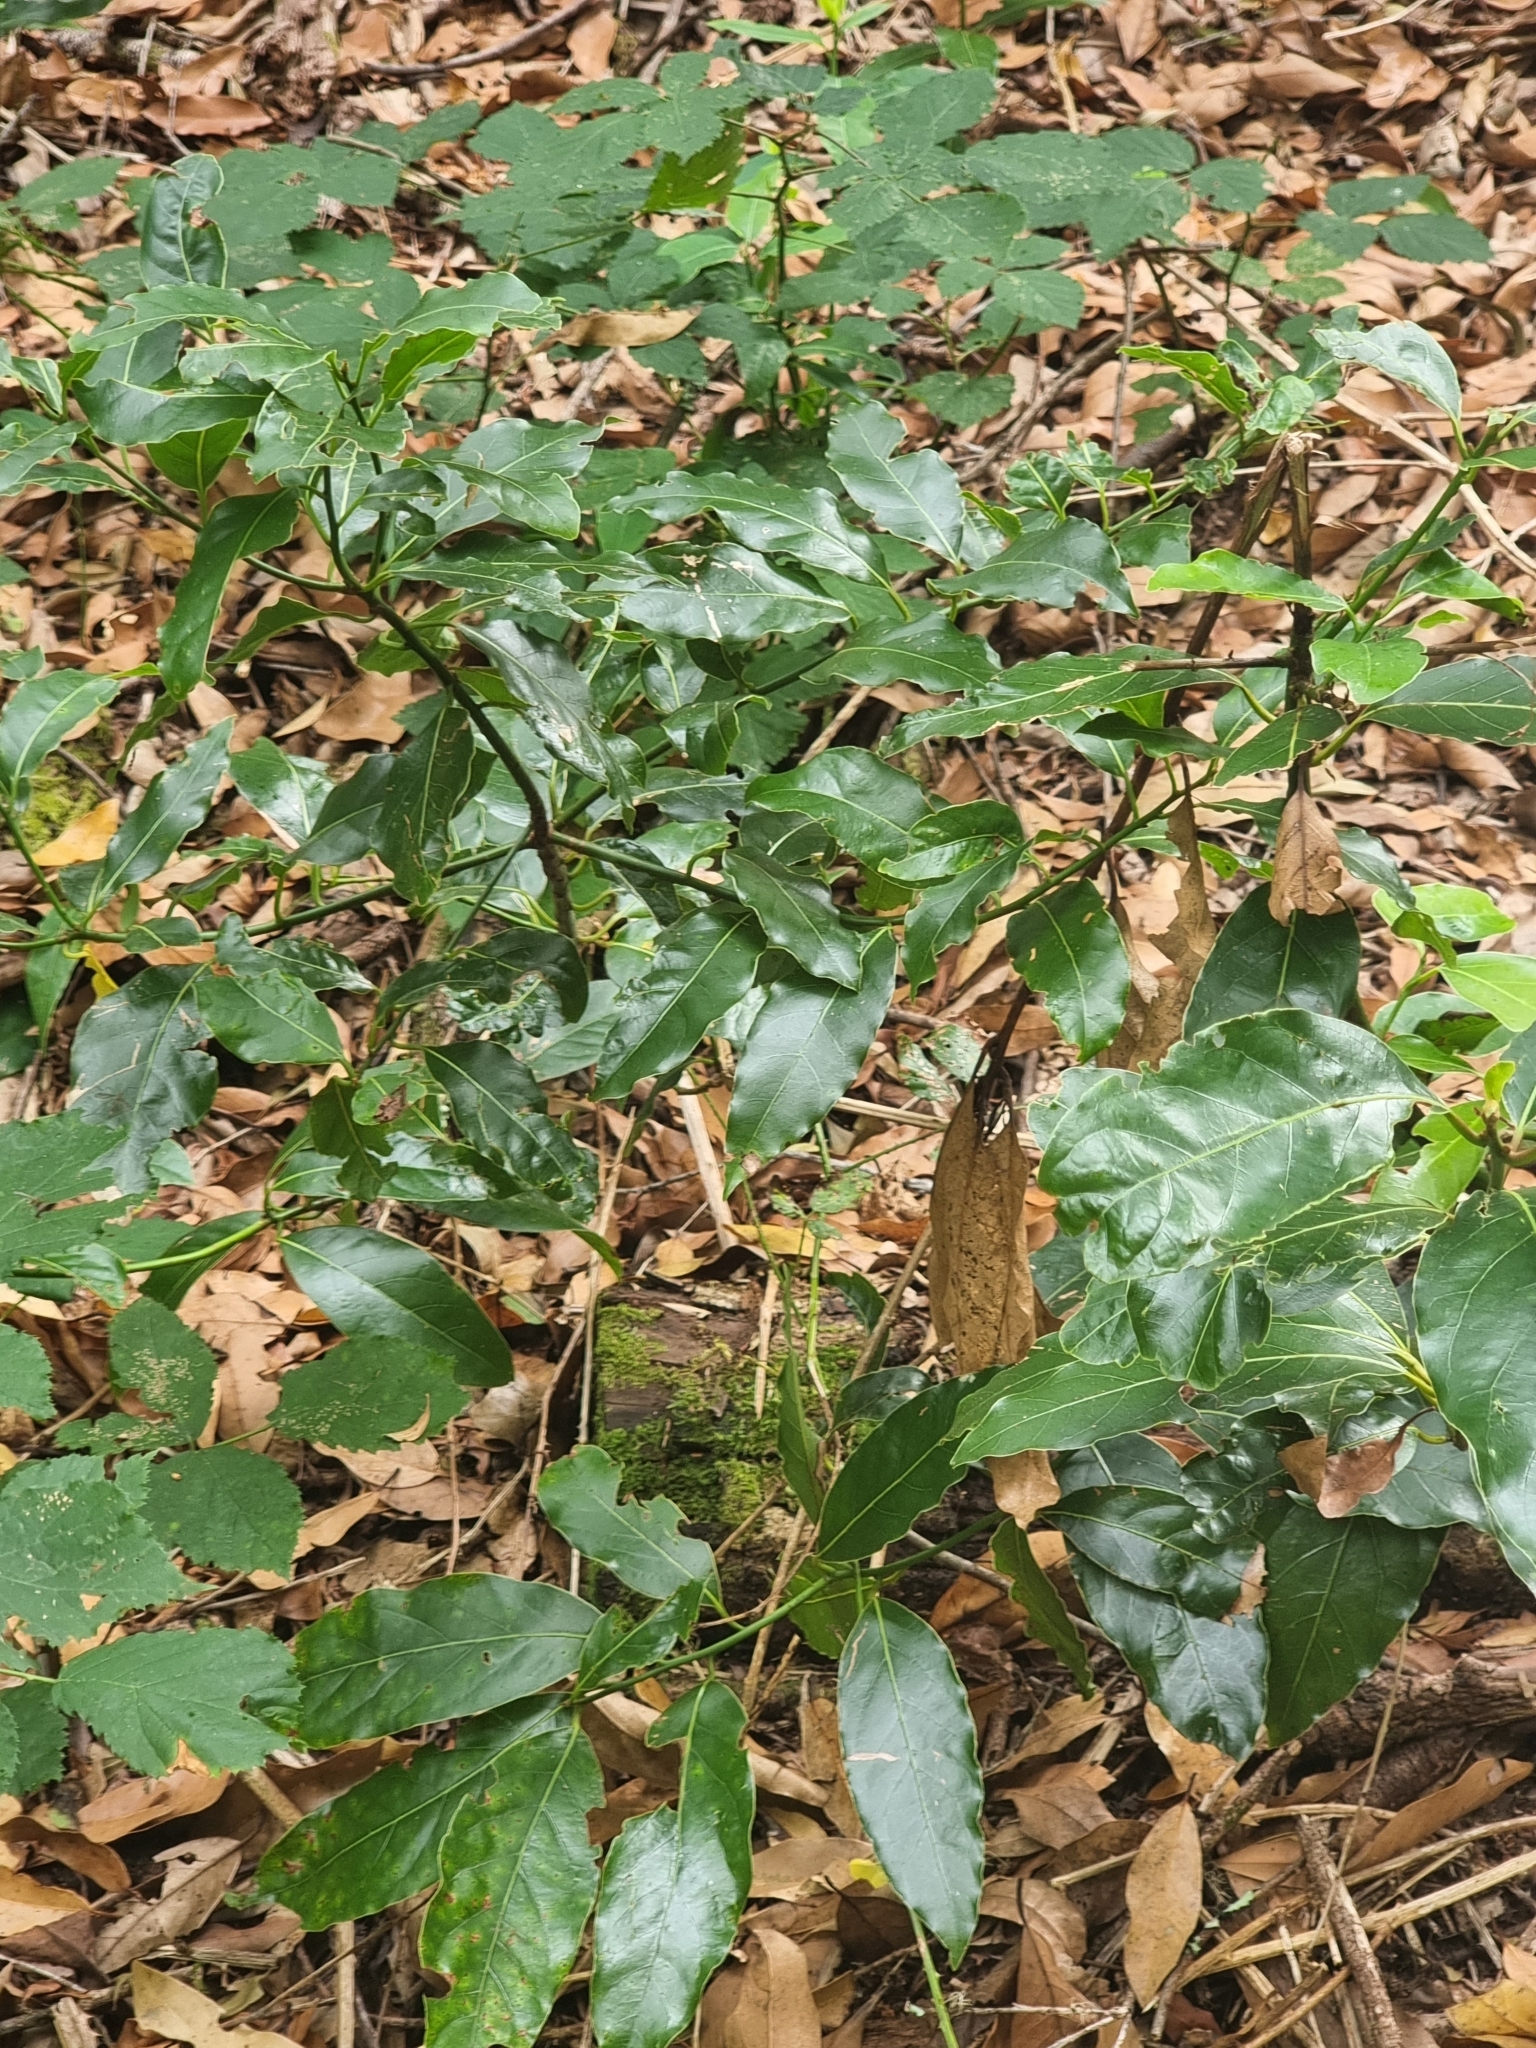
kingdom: Plantae
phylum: Tracheophyta
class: Magnoliopsida
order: Laurales
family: Lauraceae
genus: Laurus
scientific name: Laurus novocanariensis
